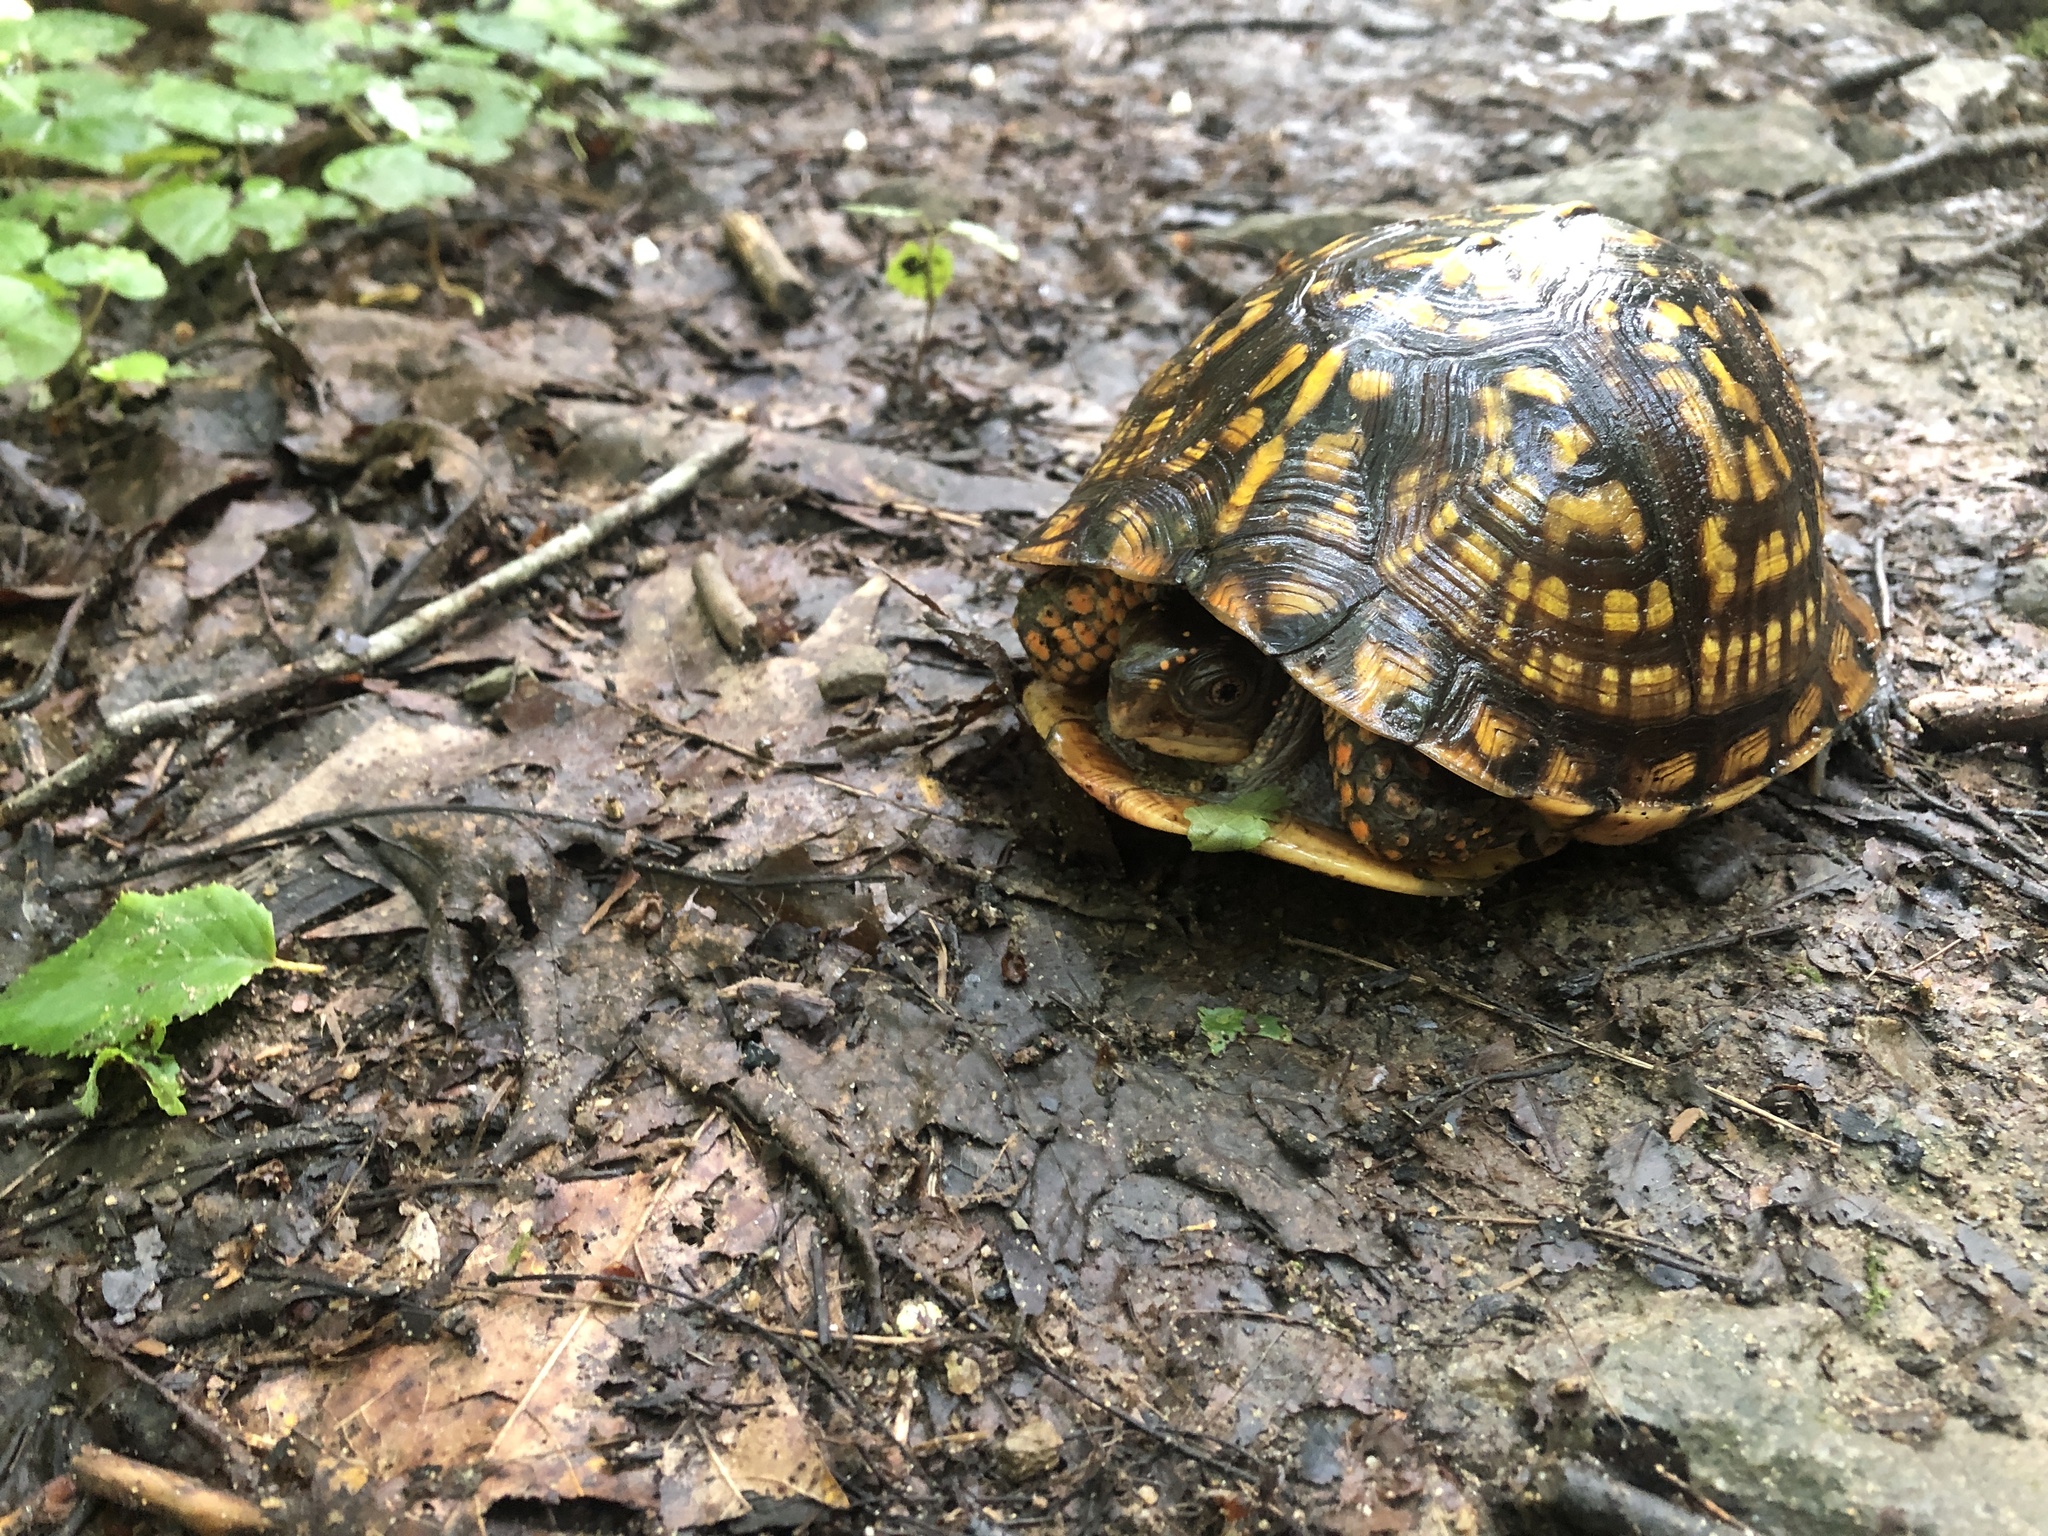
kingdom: Animalia
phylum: Chordata
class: Testudines
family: Emydidae
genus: Terrapene
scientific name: Terrapene carolina
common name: Common box turtle
